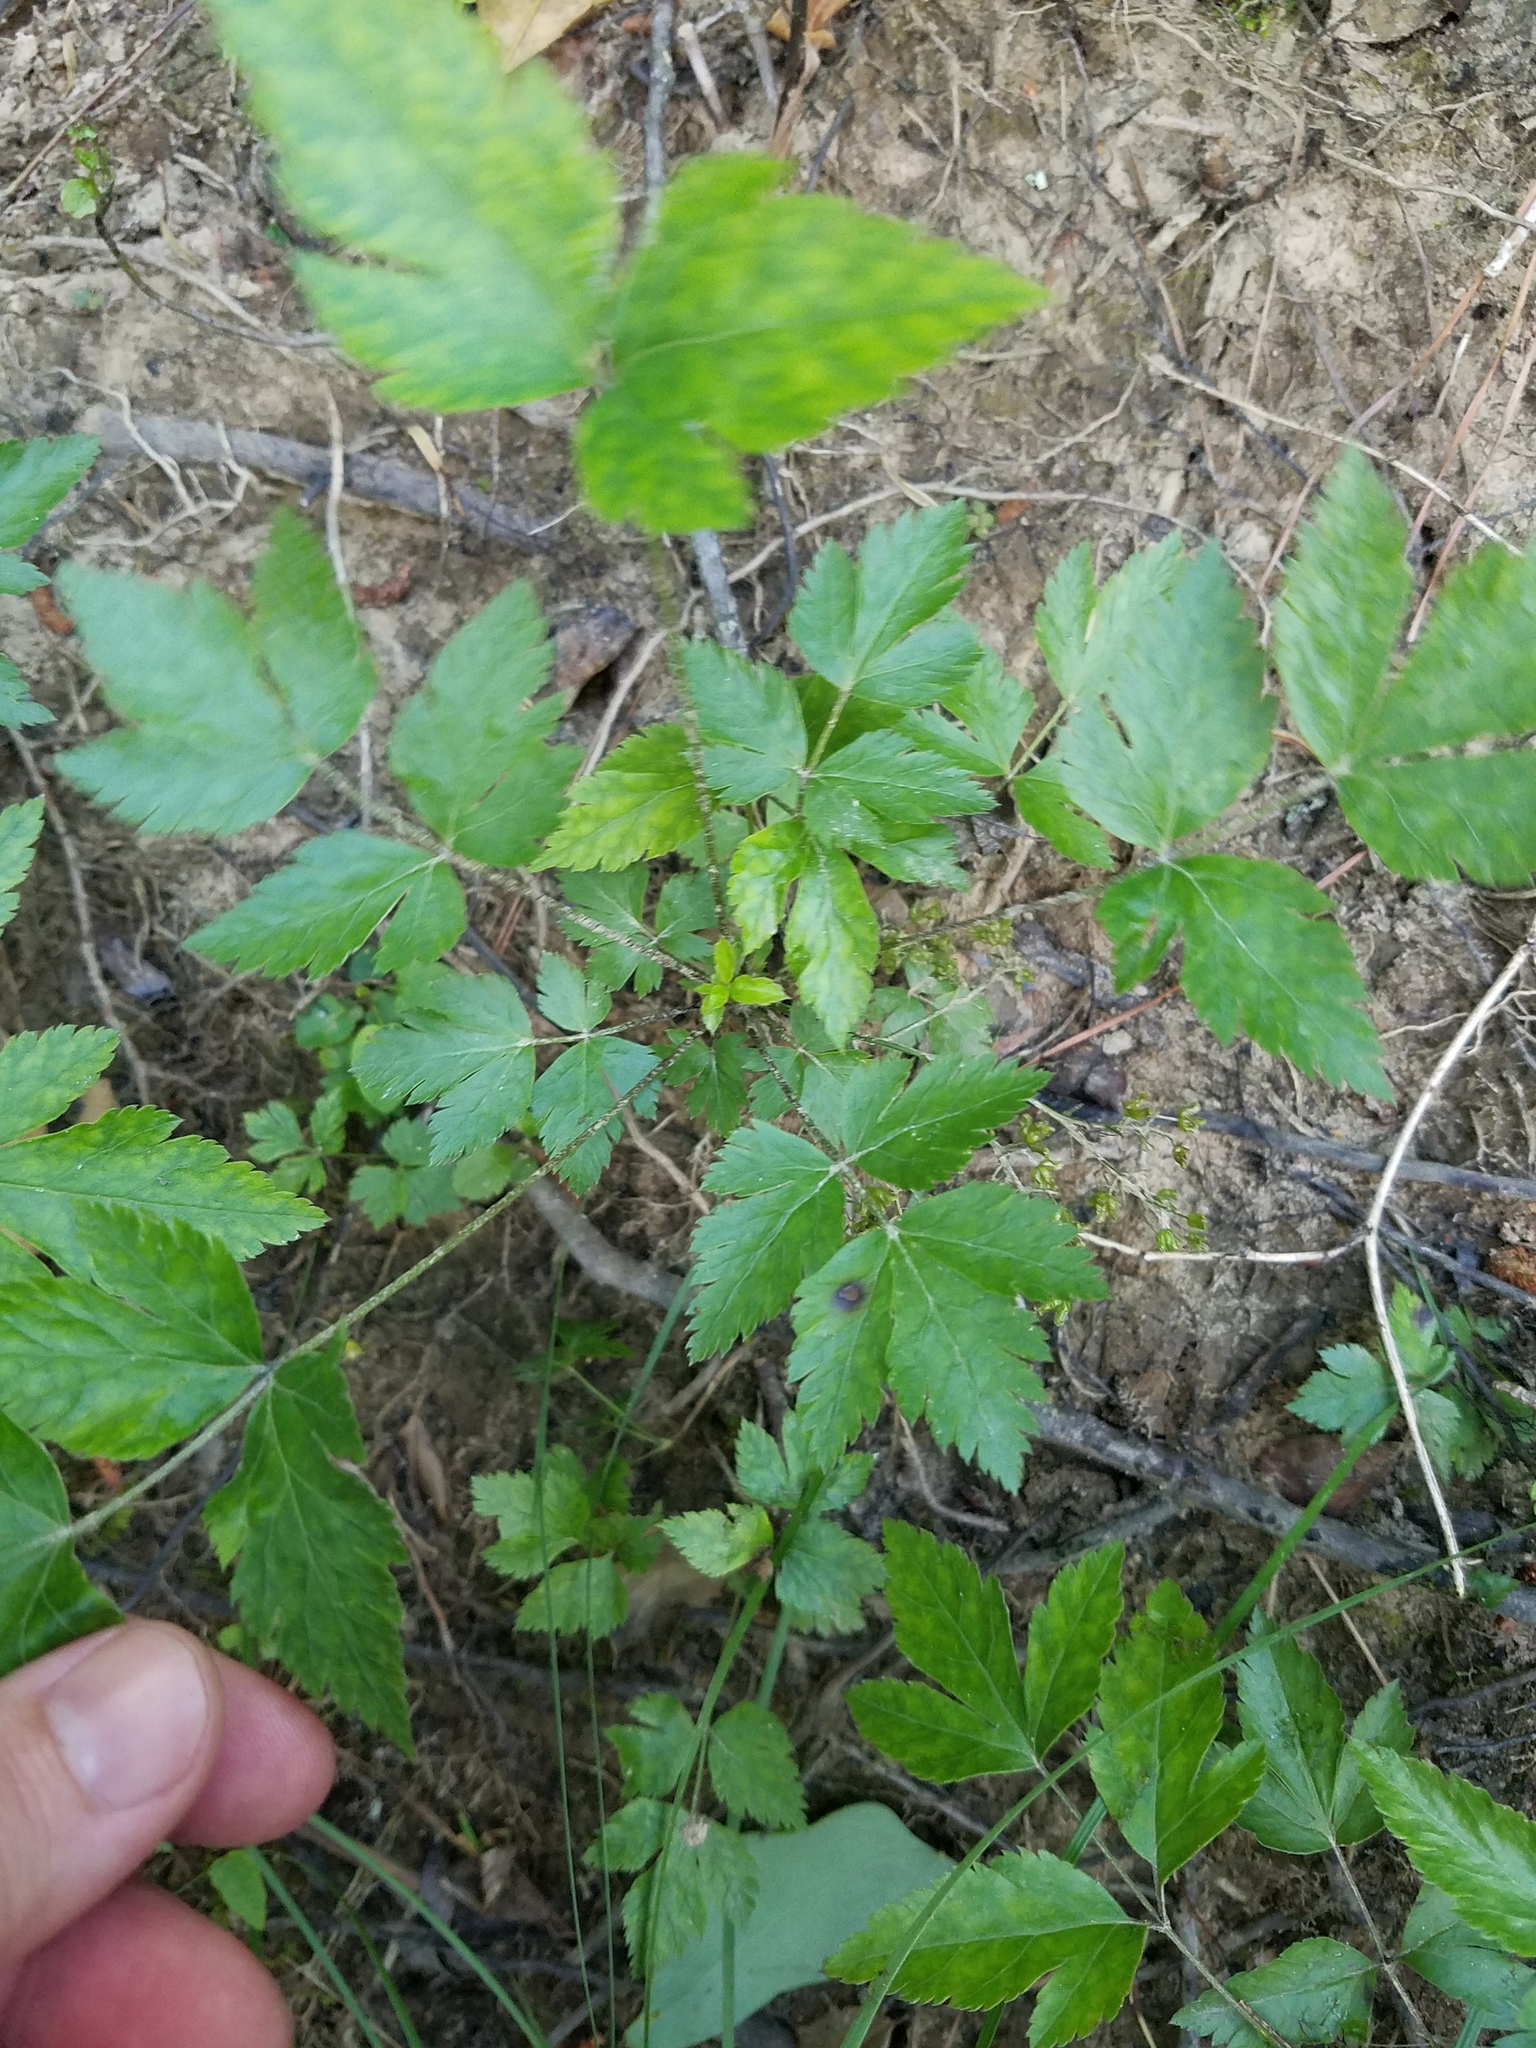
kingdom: Plantae
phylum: Tracheophyta
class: Magnoliopsida
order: Ranunculales
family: Ranunculaceae
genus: Xanthorhiza
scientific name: Xanthorhiza simplicissima
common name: Yellowroot
